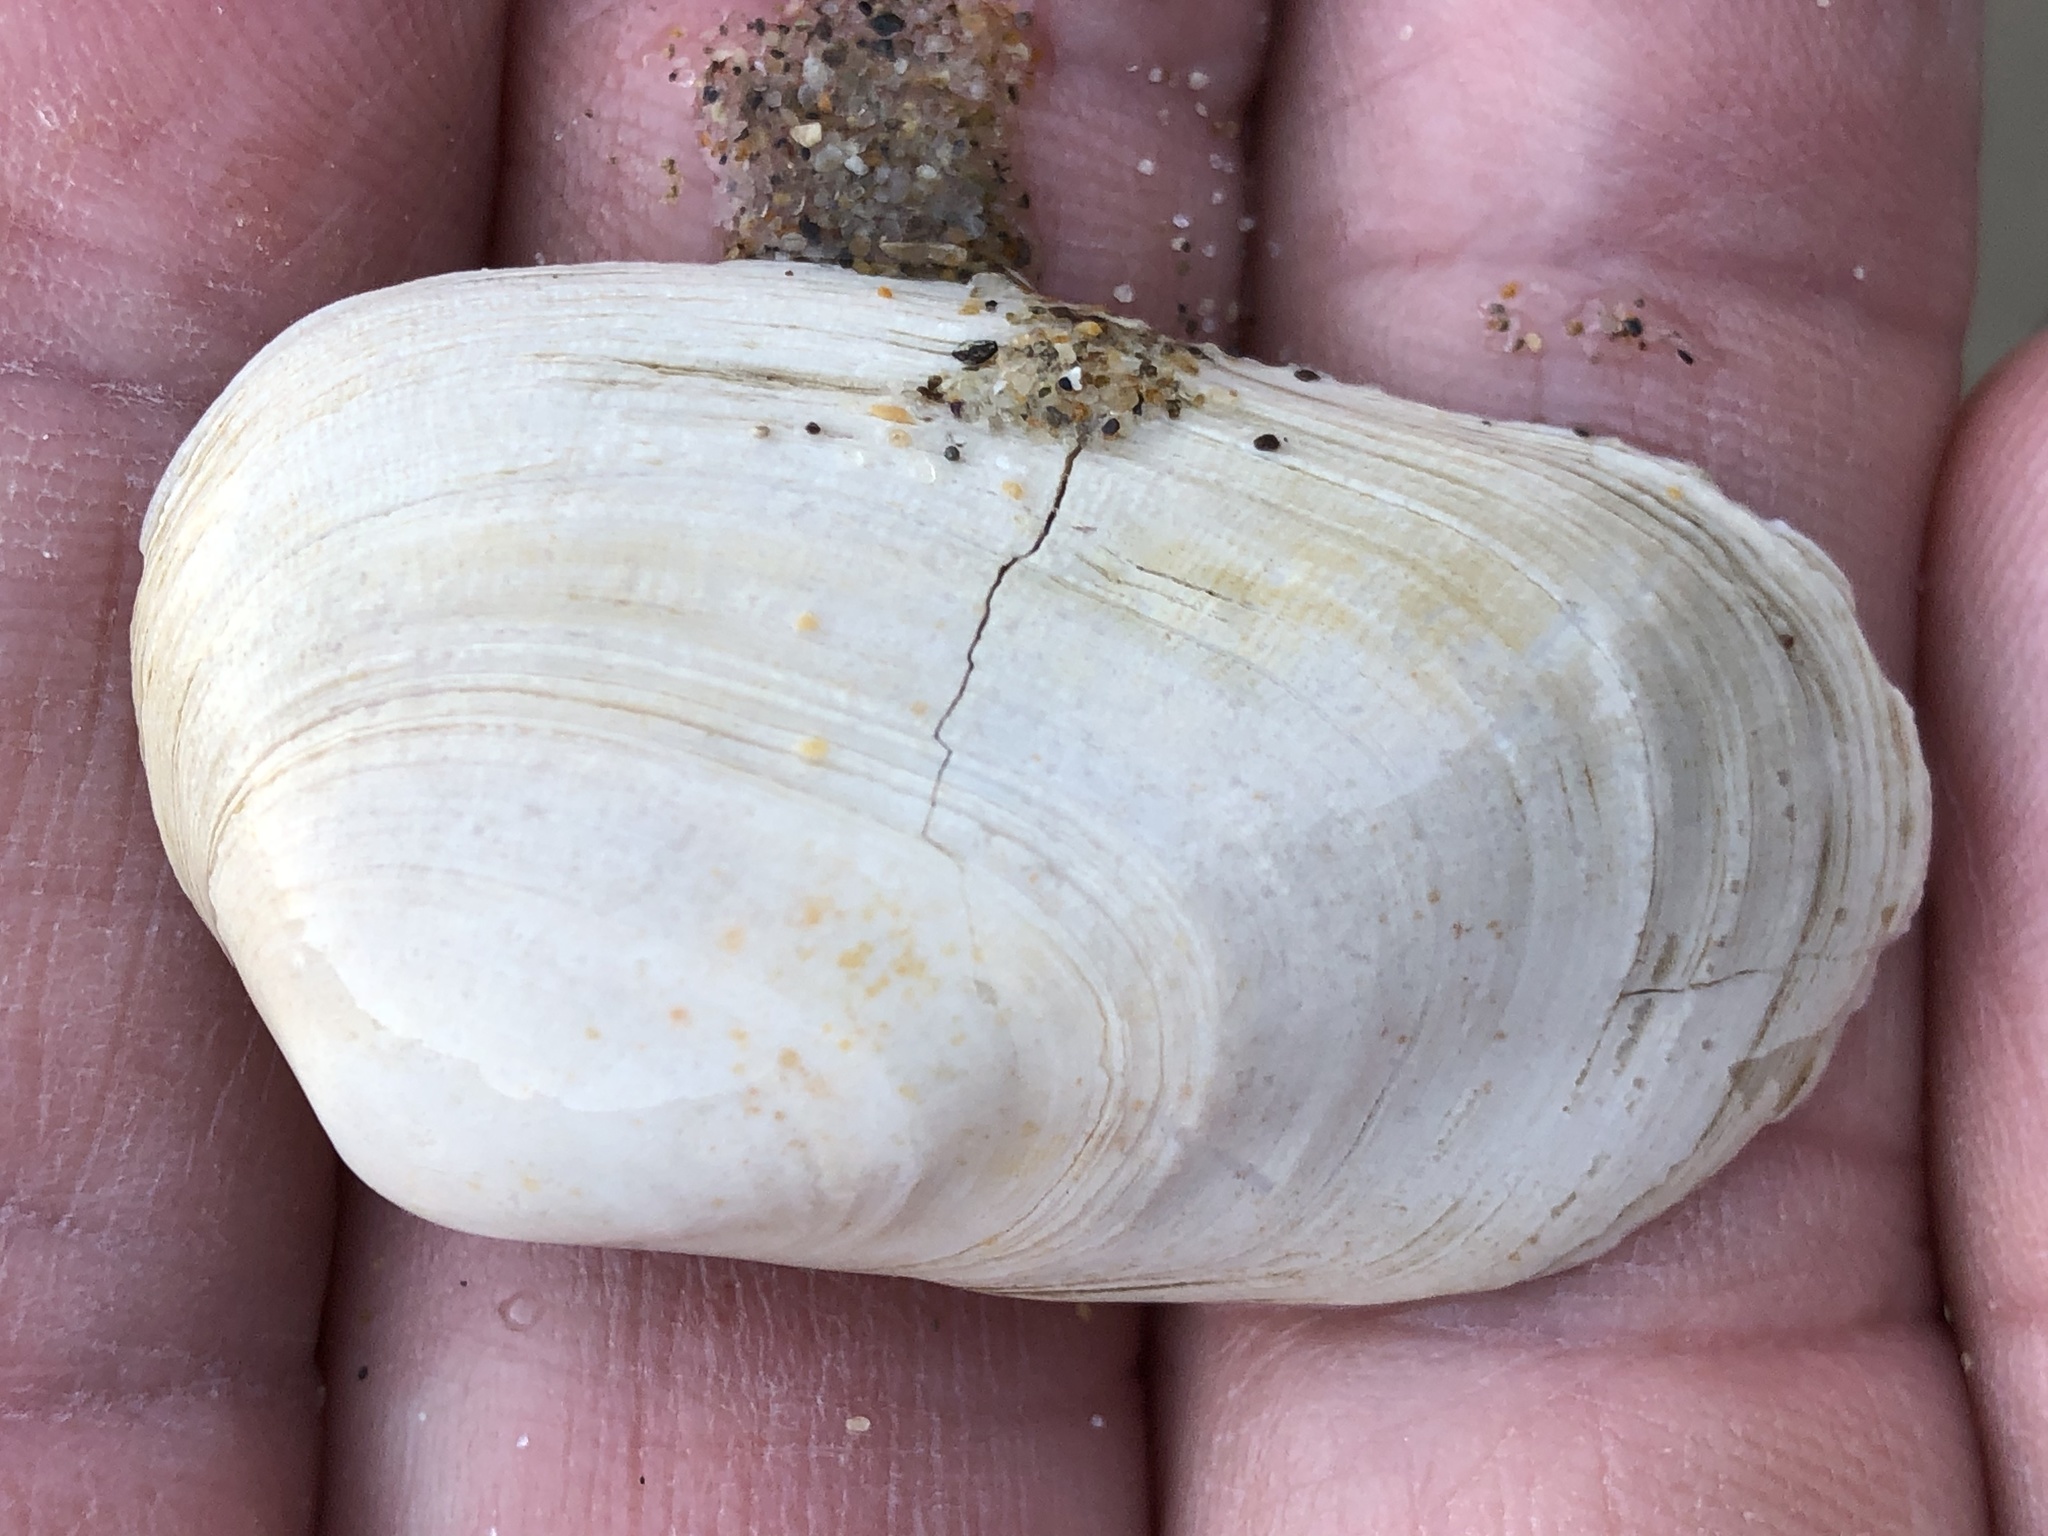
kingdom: Animalia
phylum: Mollusca
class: Bivalvia
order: Venerida
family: Veneridae
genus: Petricola
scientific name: Petricola carditoides
